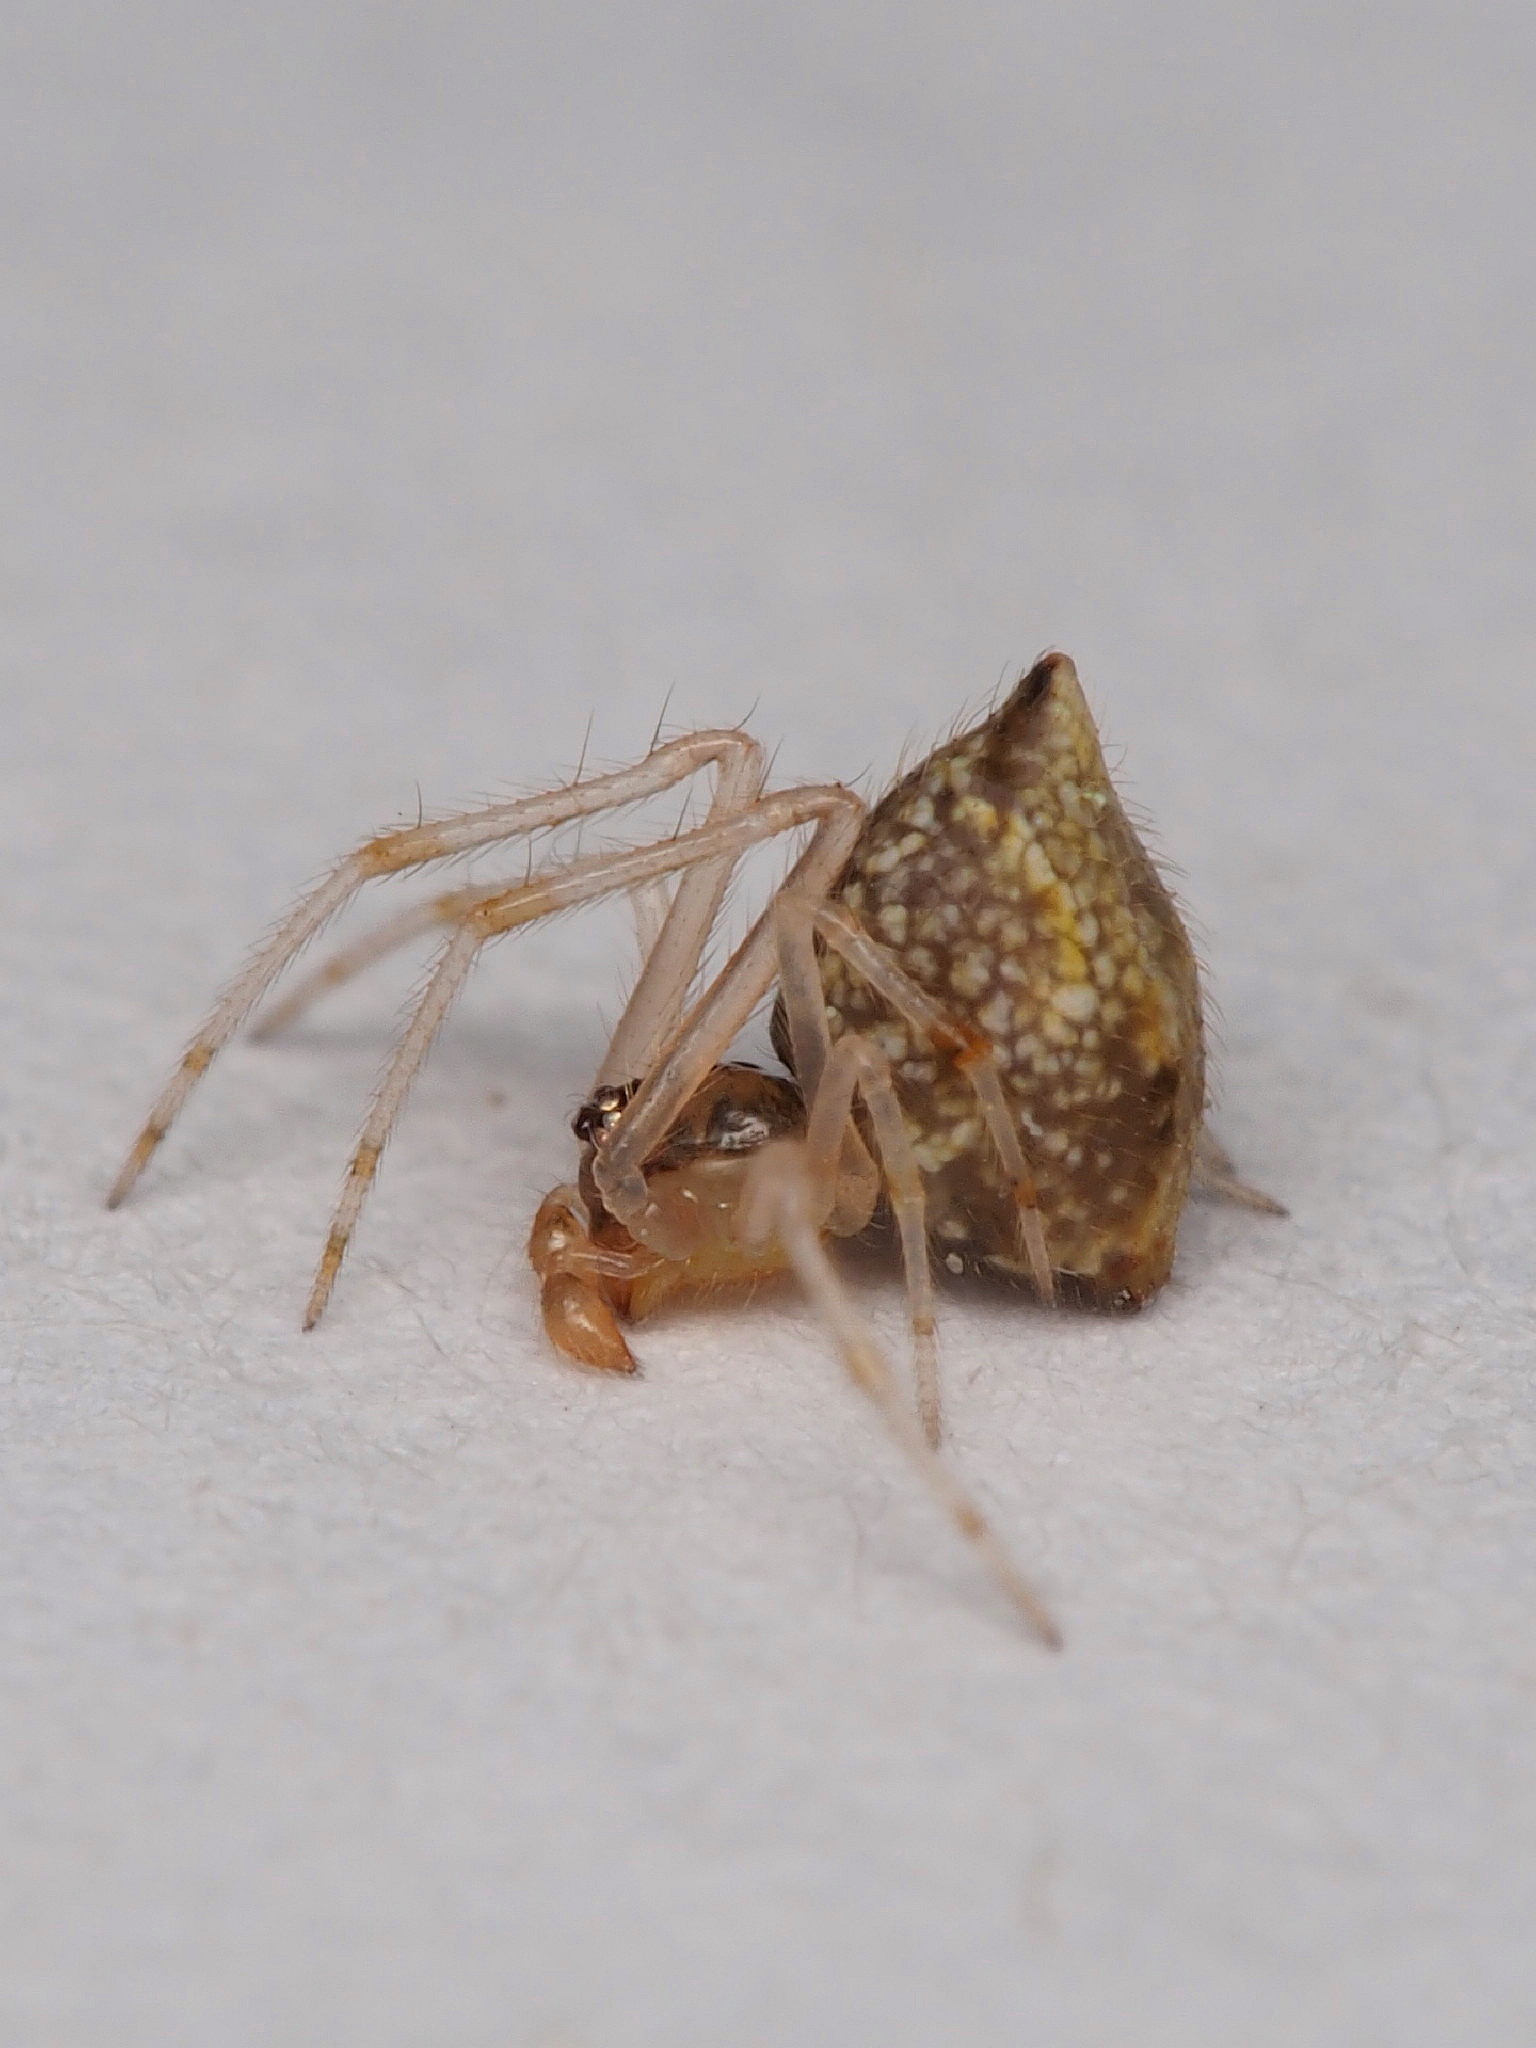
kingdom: Animalia
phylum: Arthropoda
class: Arachnida
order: Araneae
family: Theridiidae
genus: Cryptachaea
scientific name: Cryptachaea meraukensis
